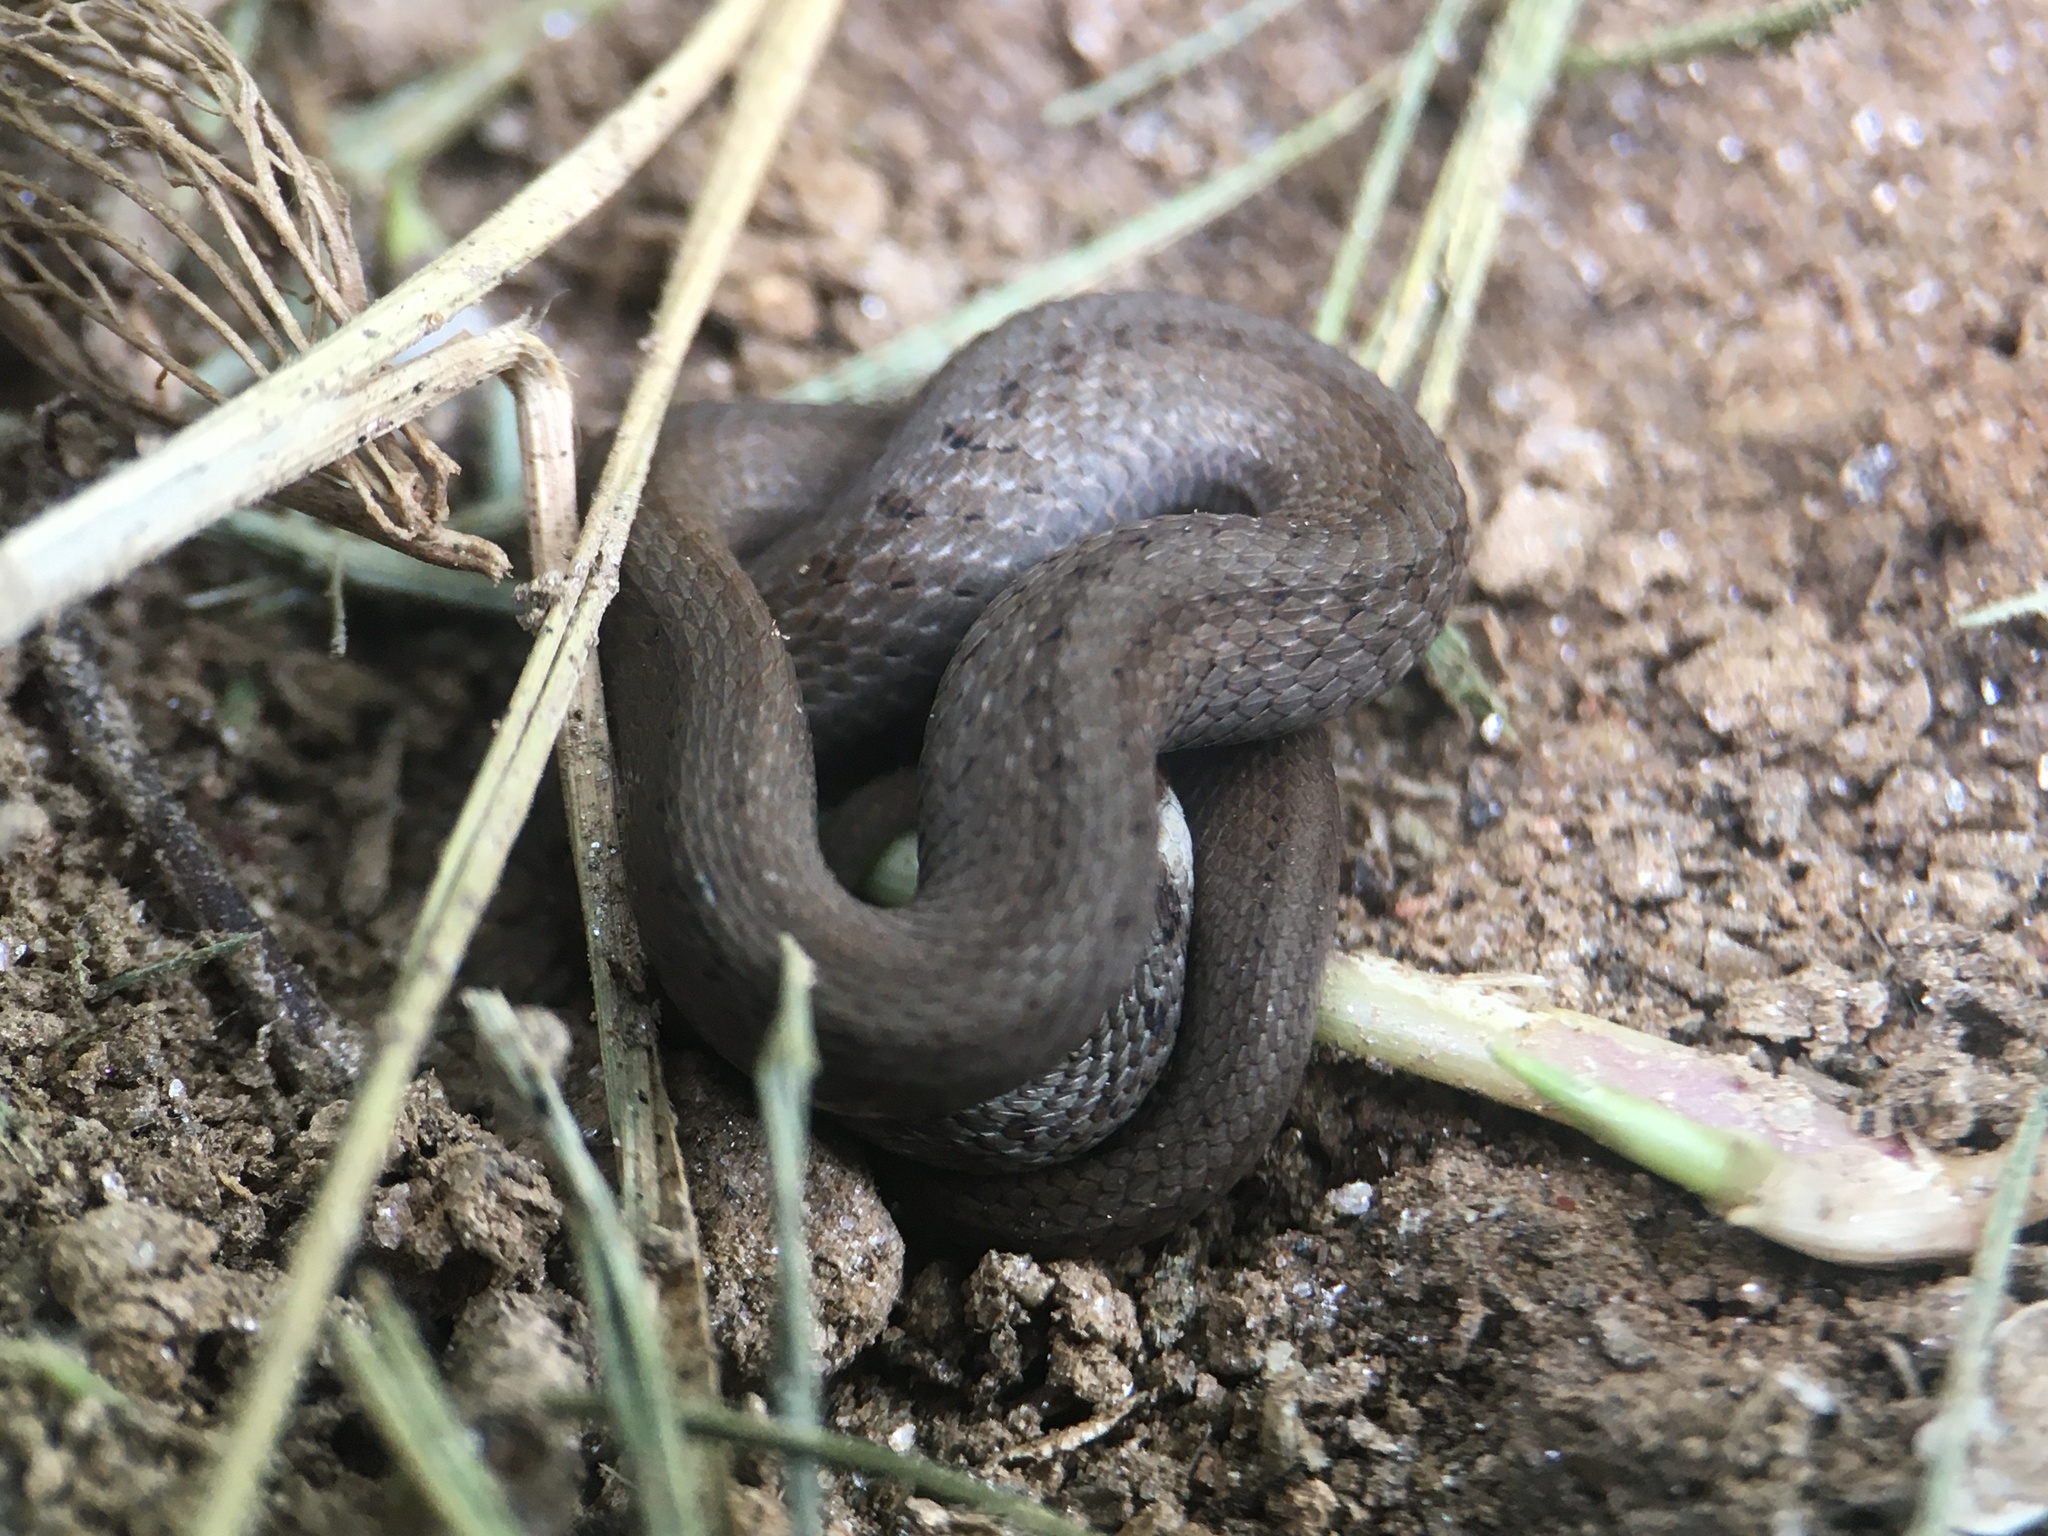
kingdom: Animalia
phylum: Chordata
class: Squamata
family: Colubridae
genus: Storeria
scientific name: Storeria dekayi
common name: (dekay’s) brown snake
